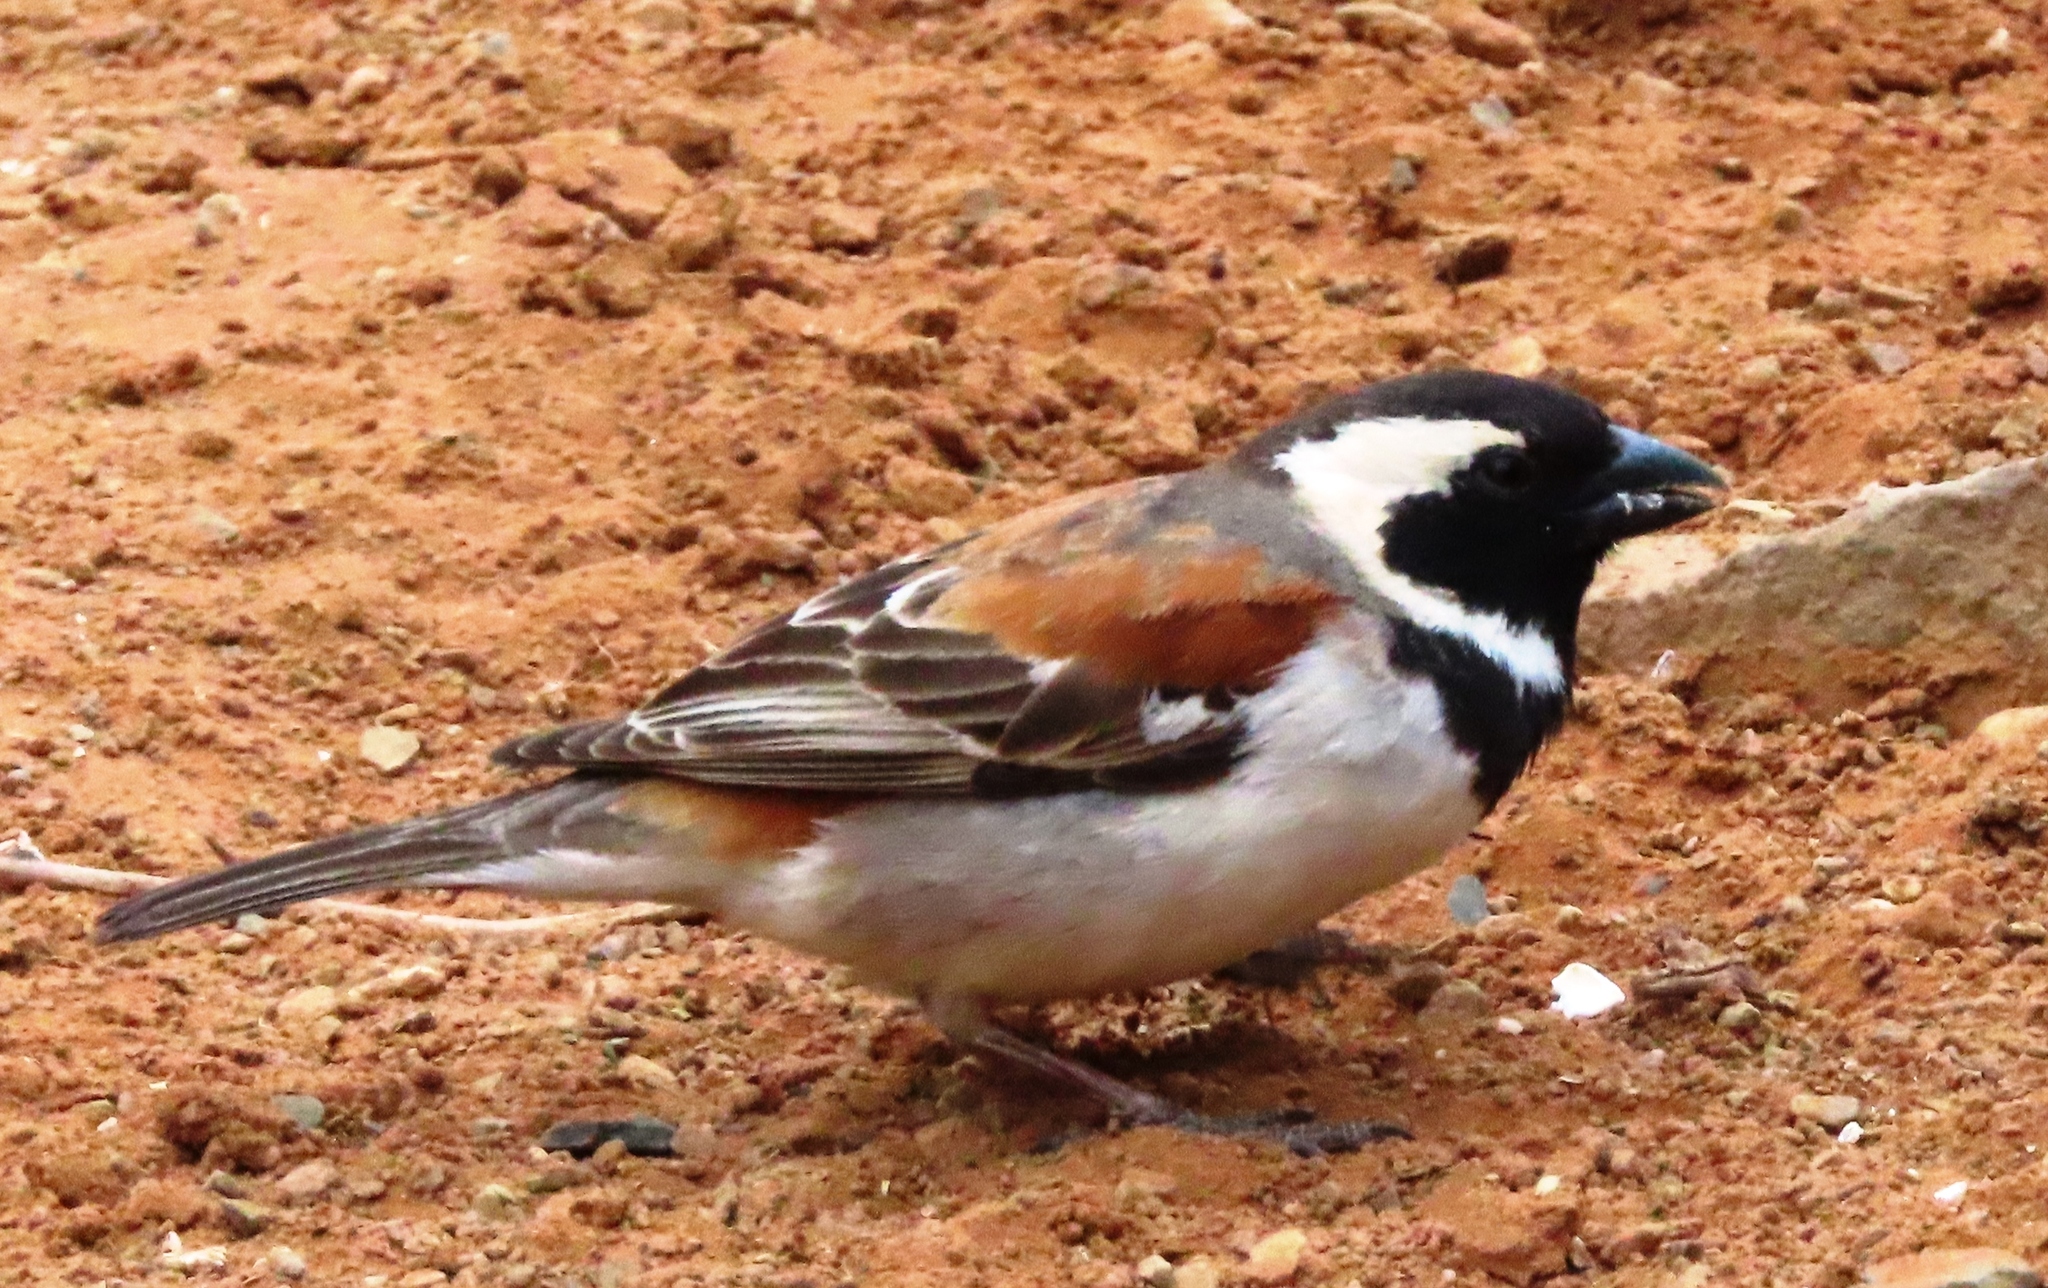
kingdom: Animalia
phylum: Chordata
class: Aves
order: Passeriformes
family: Passeridae
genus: Passer
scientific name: Passer melanurus
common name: Cape sparrow
